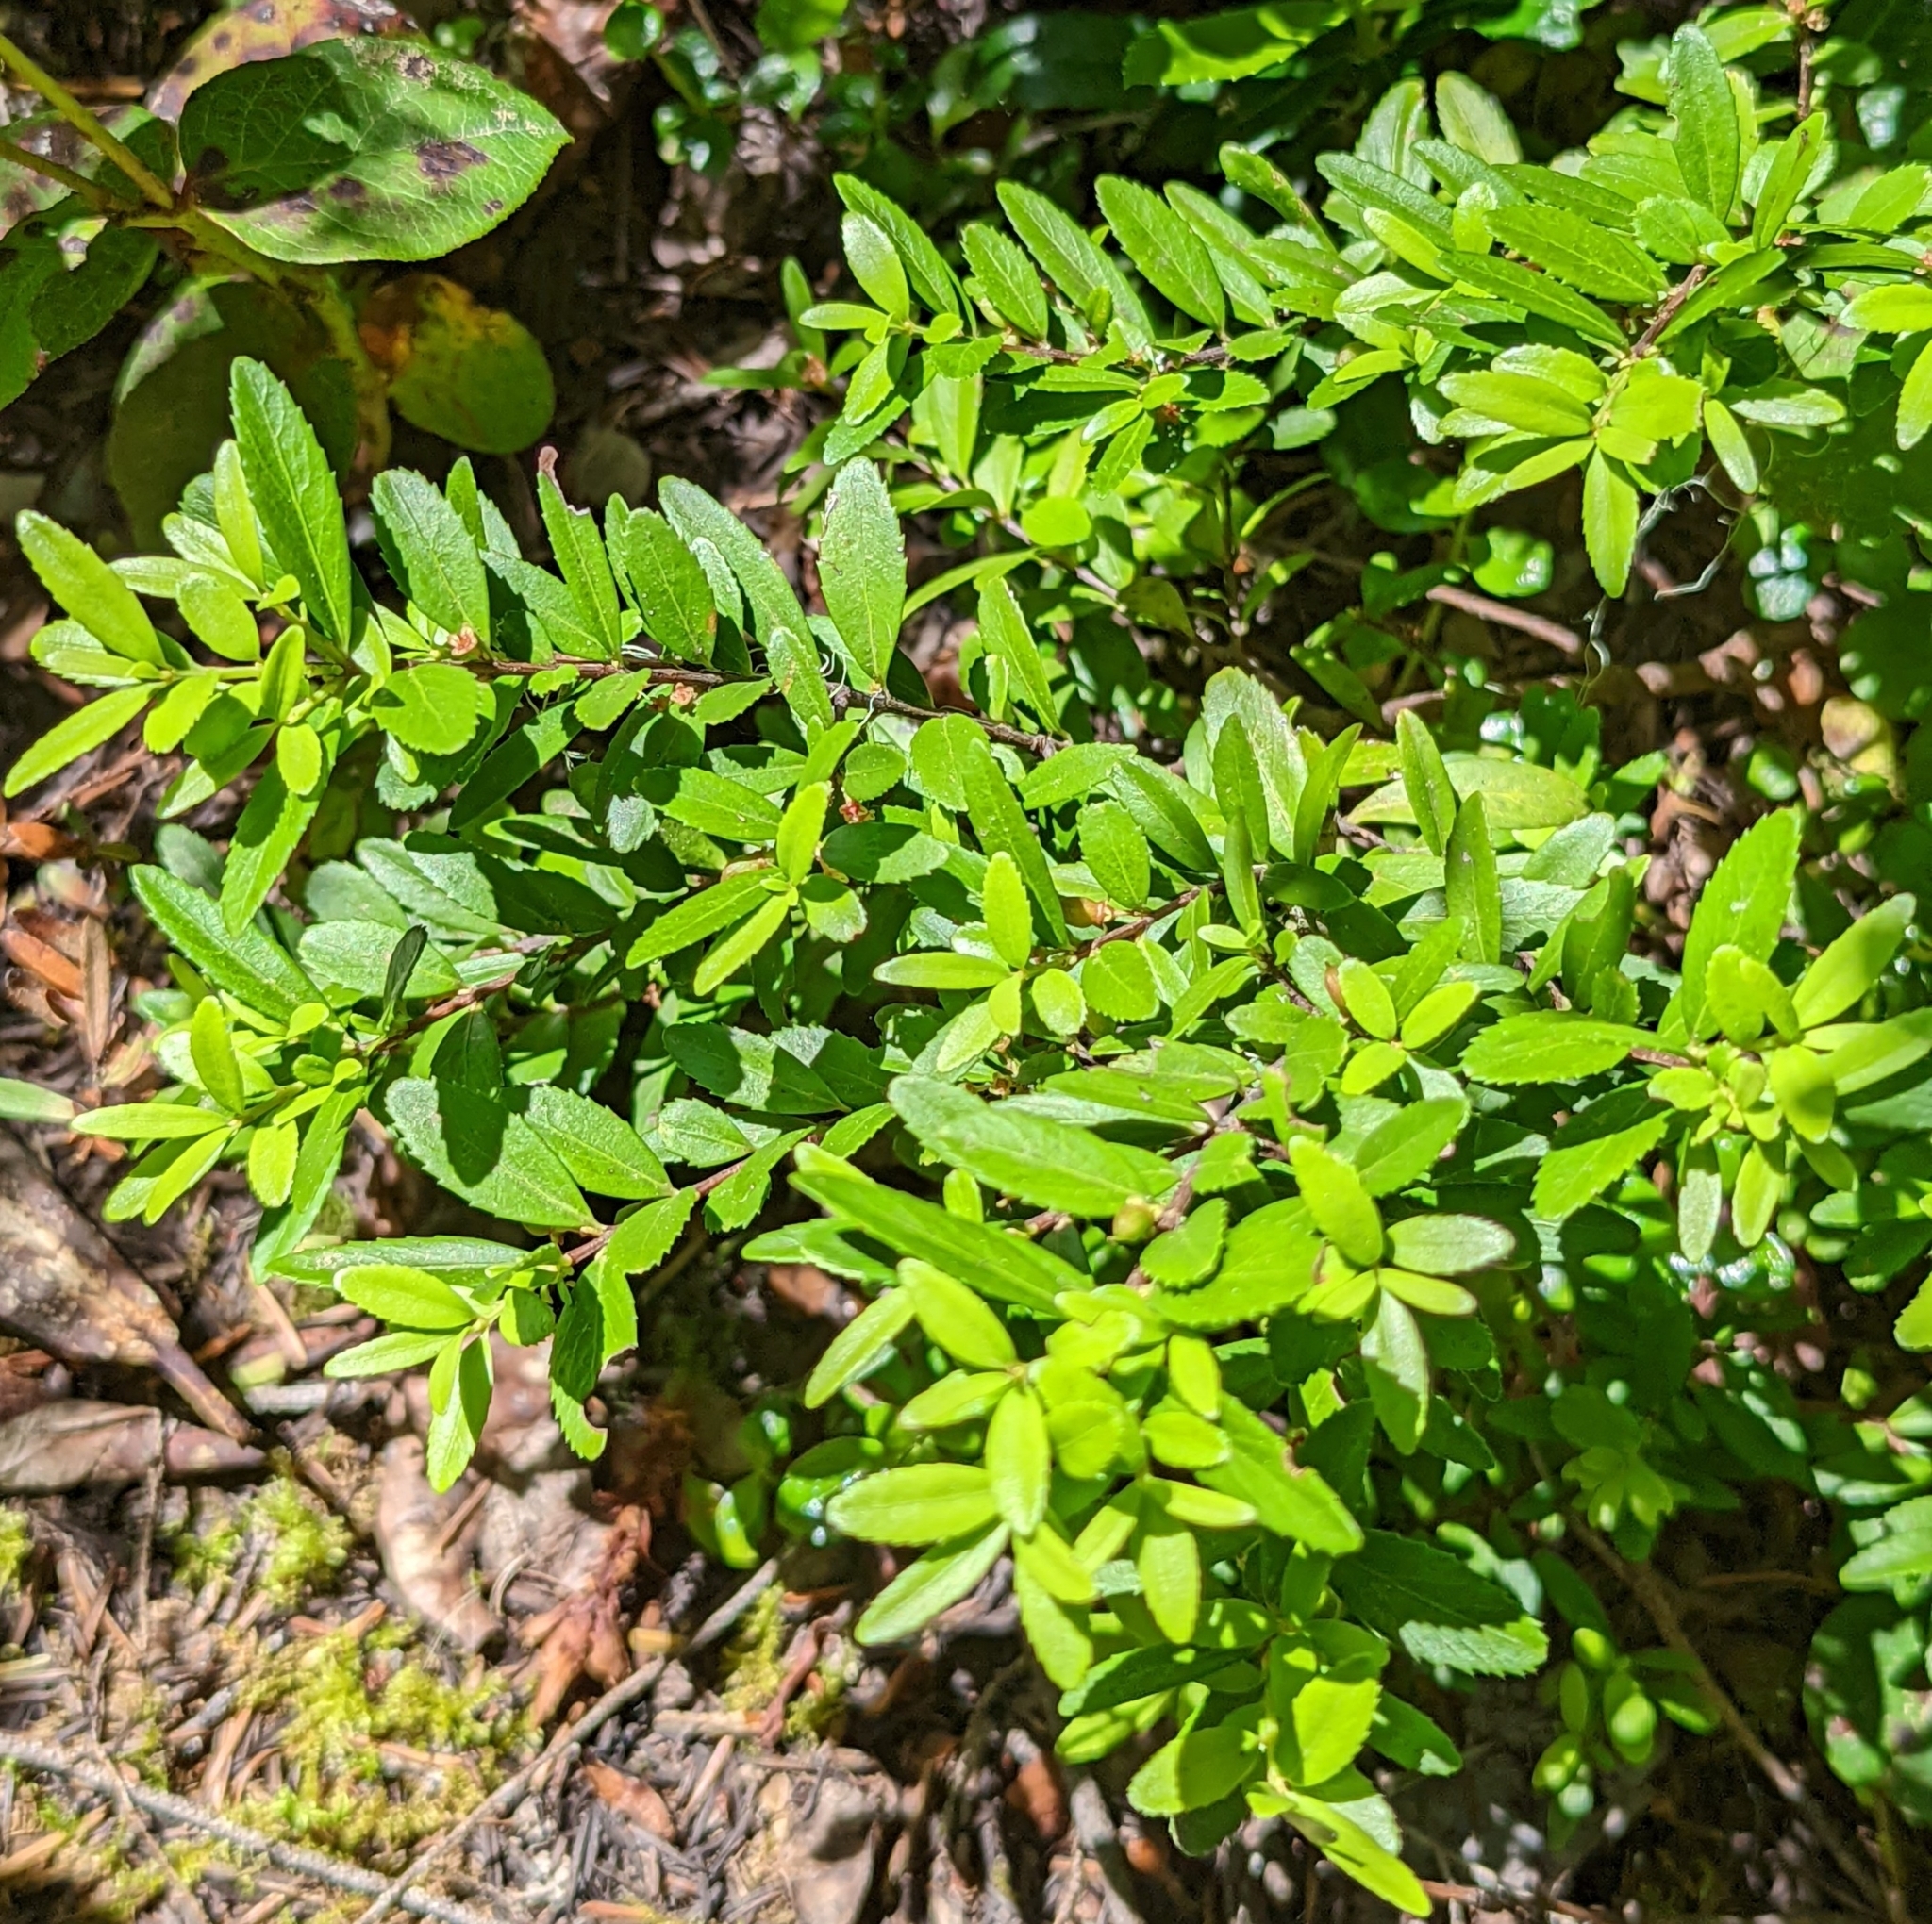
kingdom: Plantae
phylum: Tracheophyta
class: Magnoliopsida
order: Celastrales
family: Celastraceae
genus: Paxistima
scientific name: Paxistima myrsinites
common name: Mountain-lover
